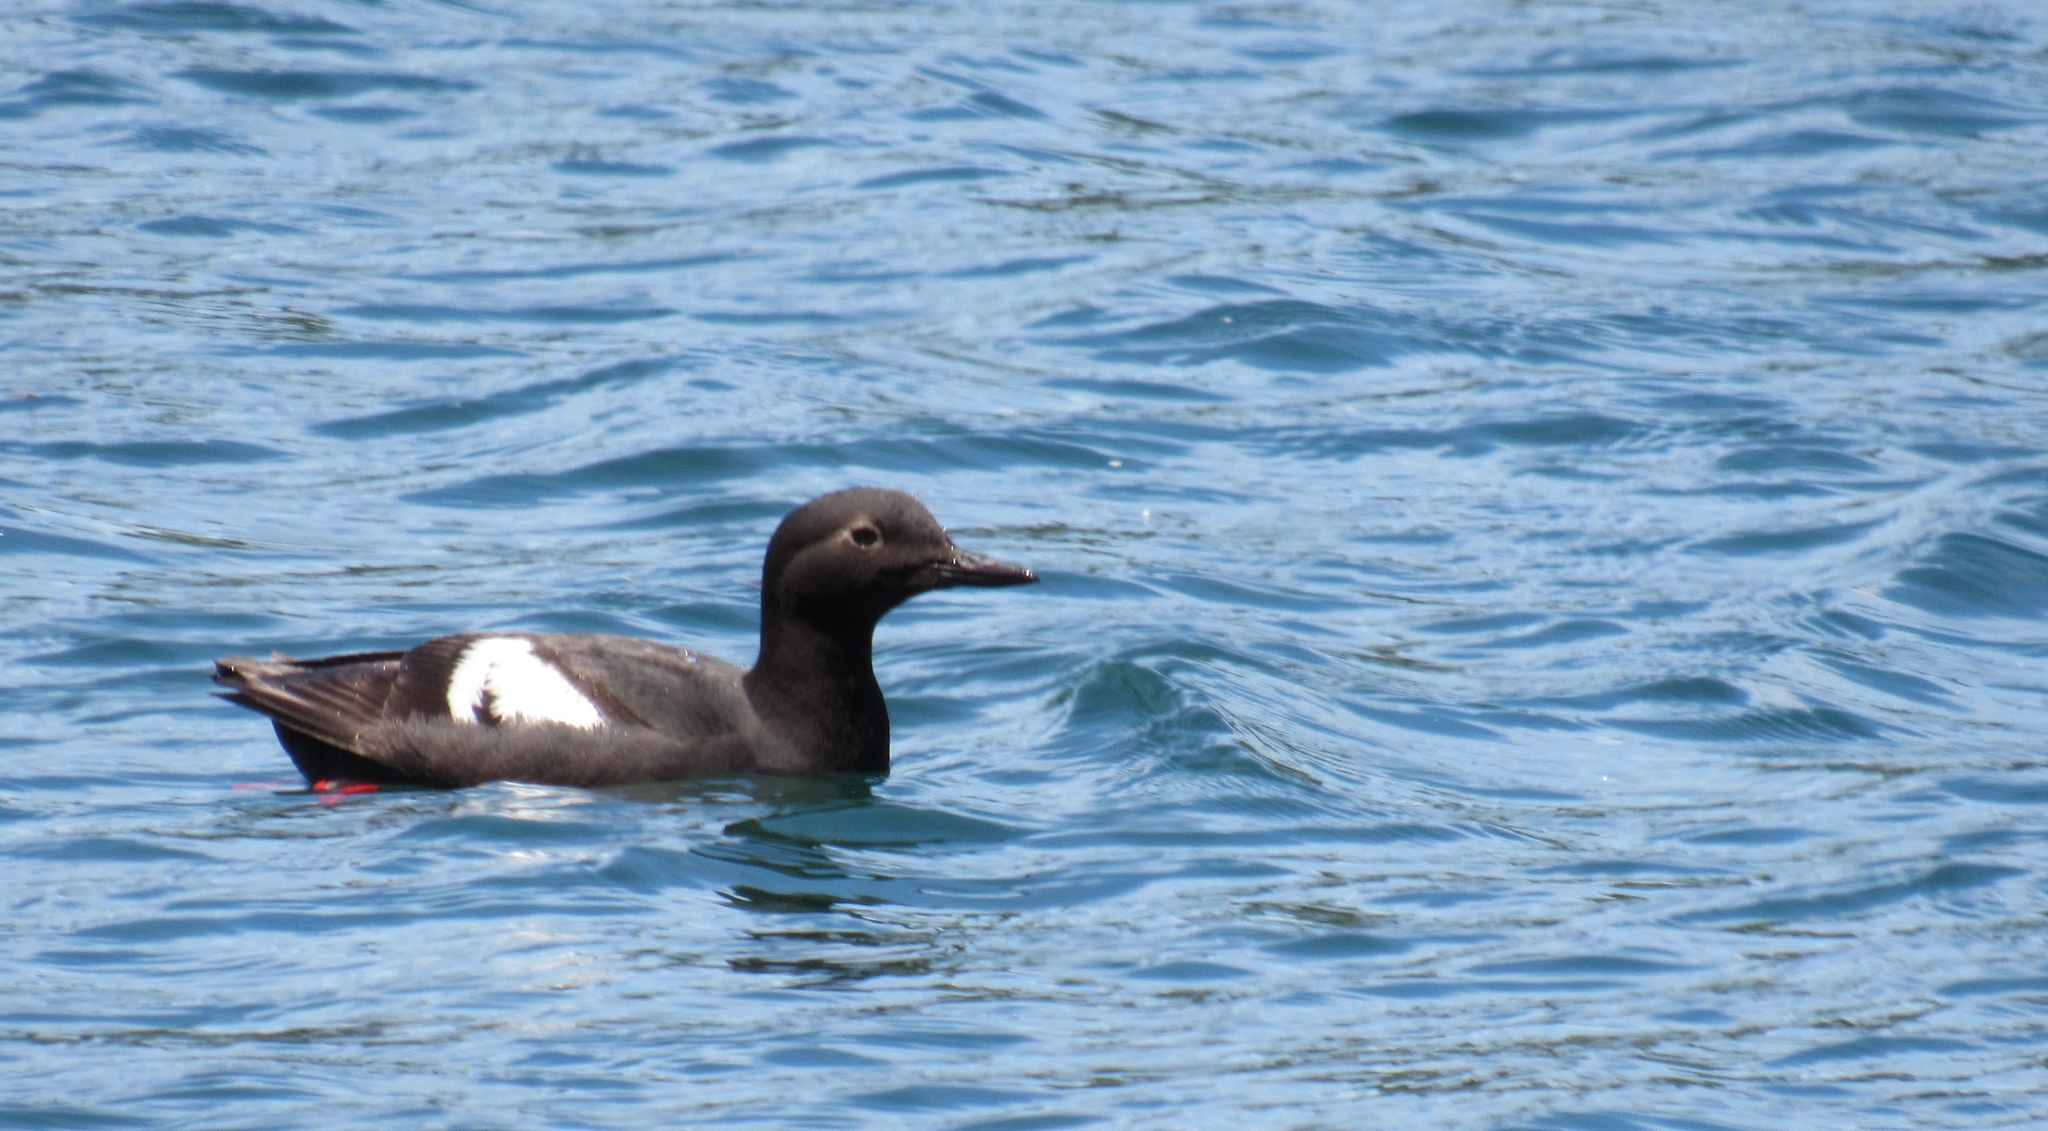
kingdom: Animalia
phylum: Chordata
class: Aves
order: Charadriiformes
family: Alcidae
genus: Cepphus
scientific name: Cepphus columba
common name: Pigeon guillemot
